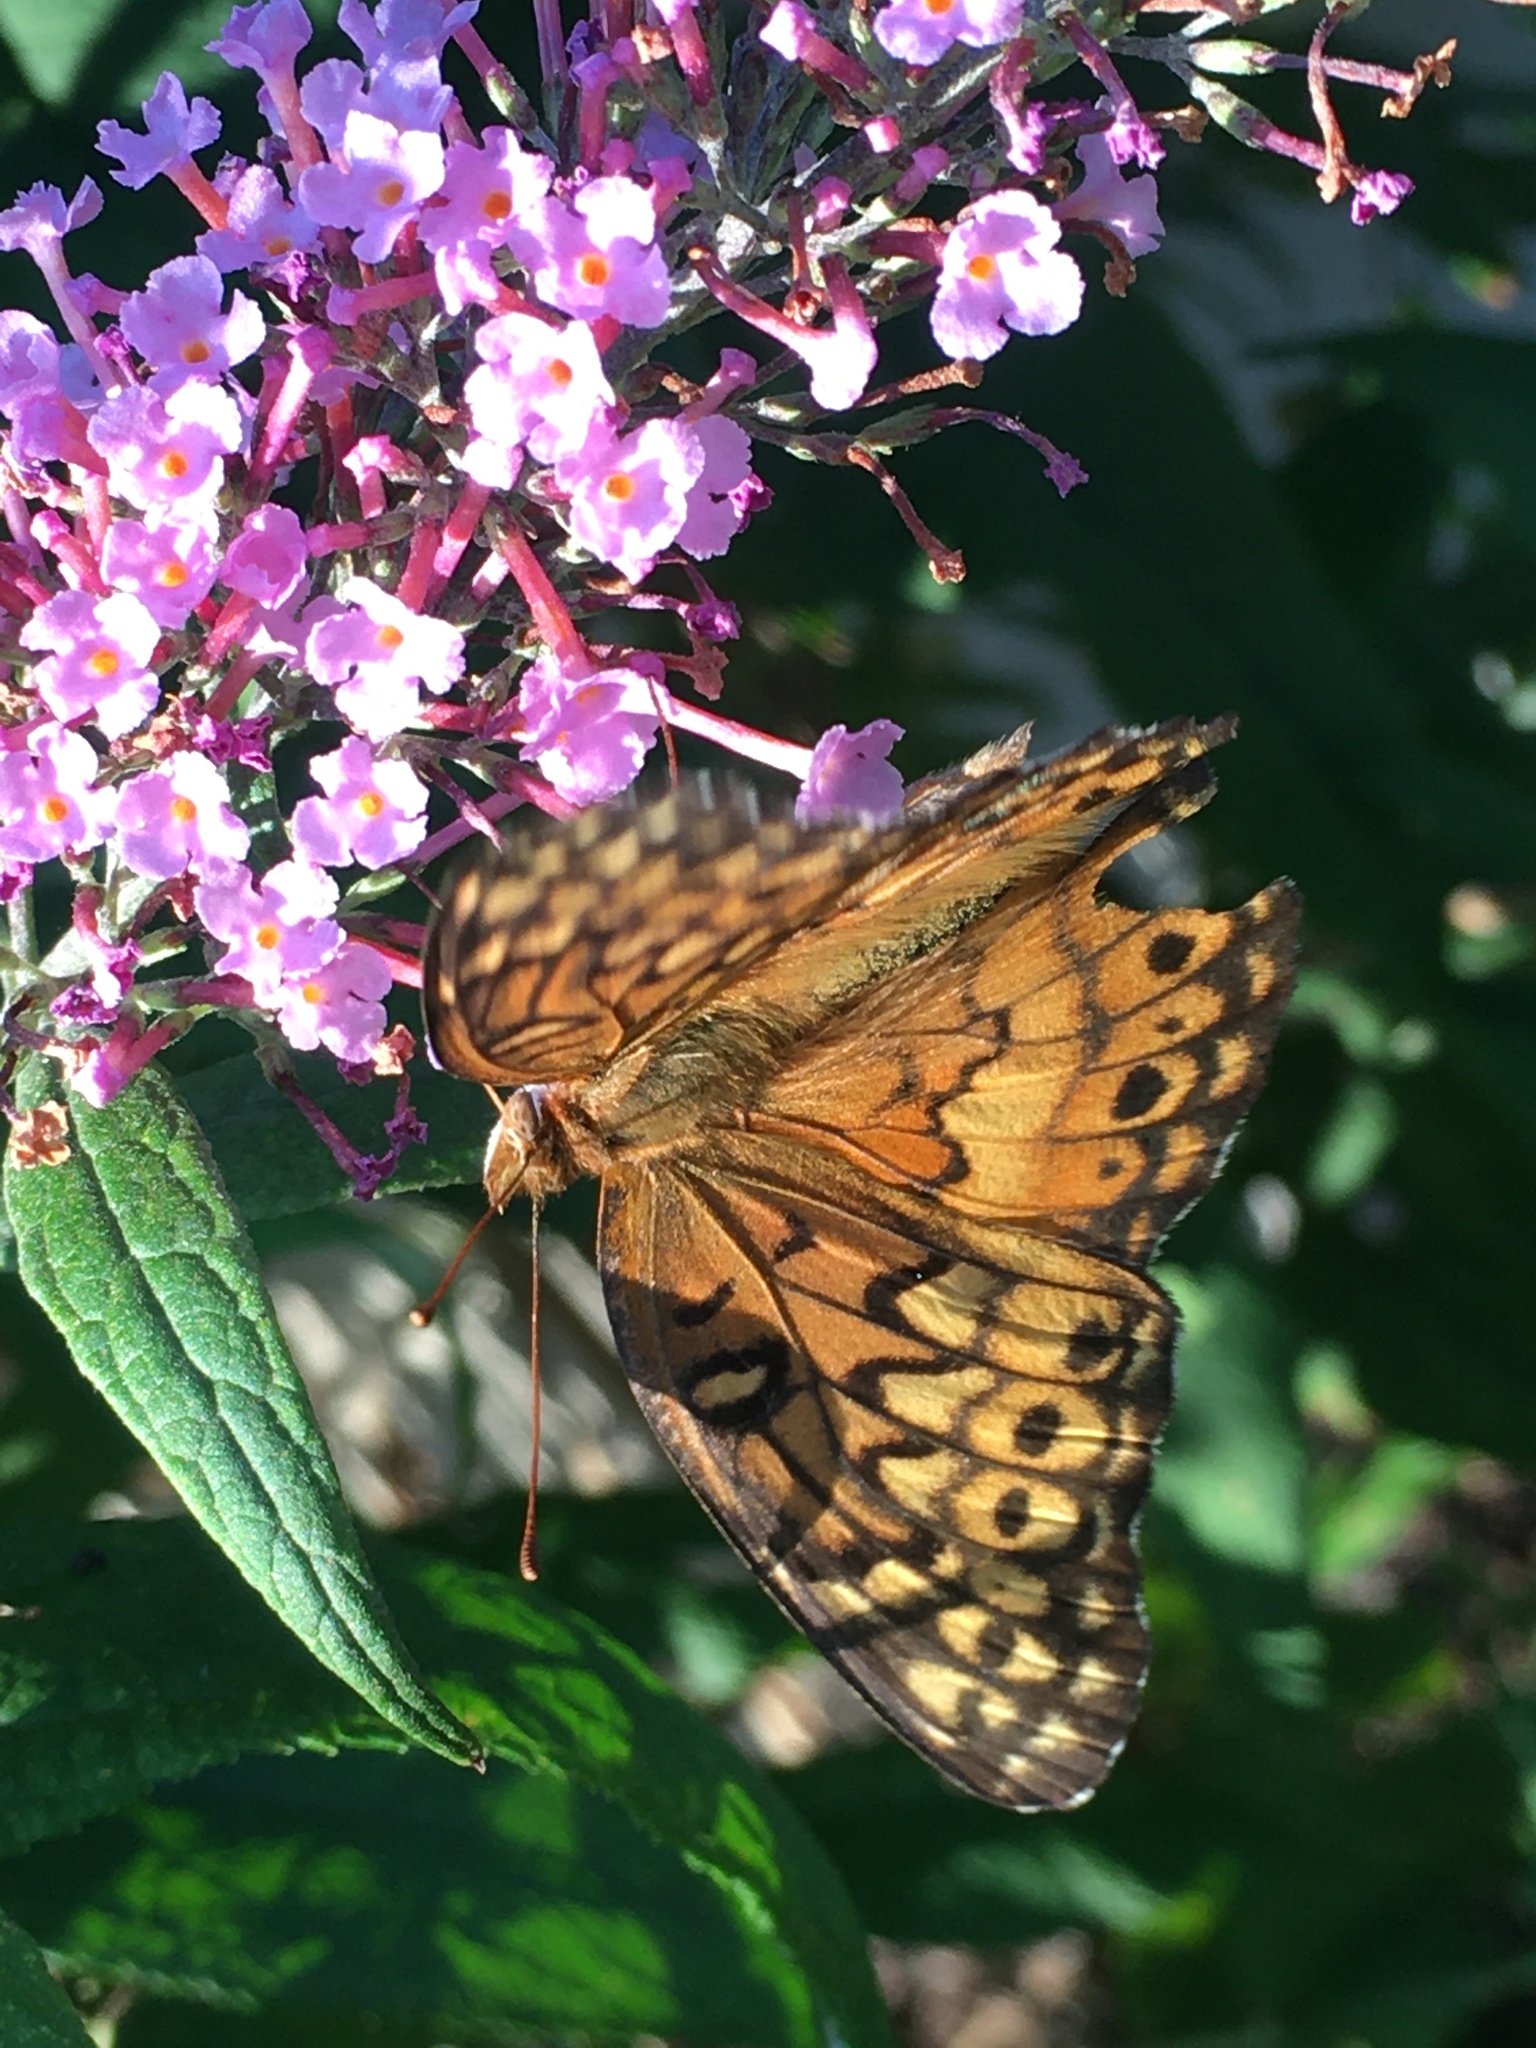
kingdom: Animalia
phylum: Arthropoda
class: Insecta
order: Lepidoptera
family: Nymphalidae
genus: Euptoieta
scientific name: Euptoieta claudia
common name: Variegated fritillary
